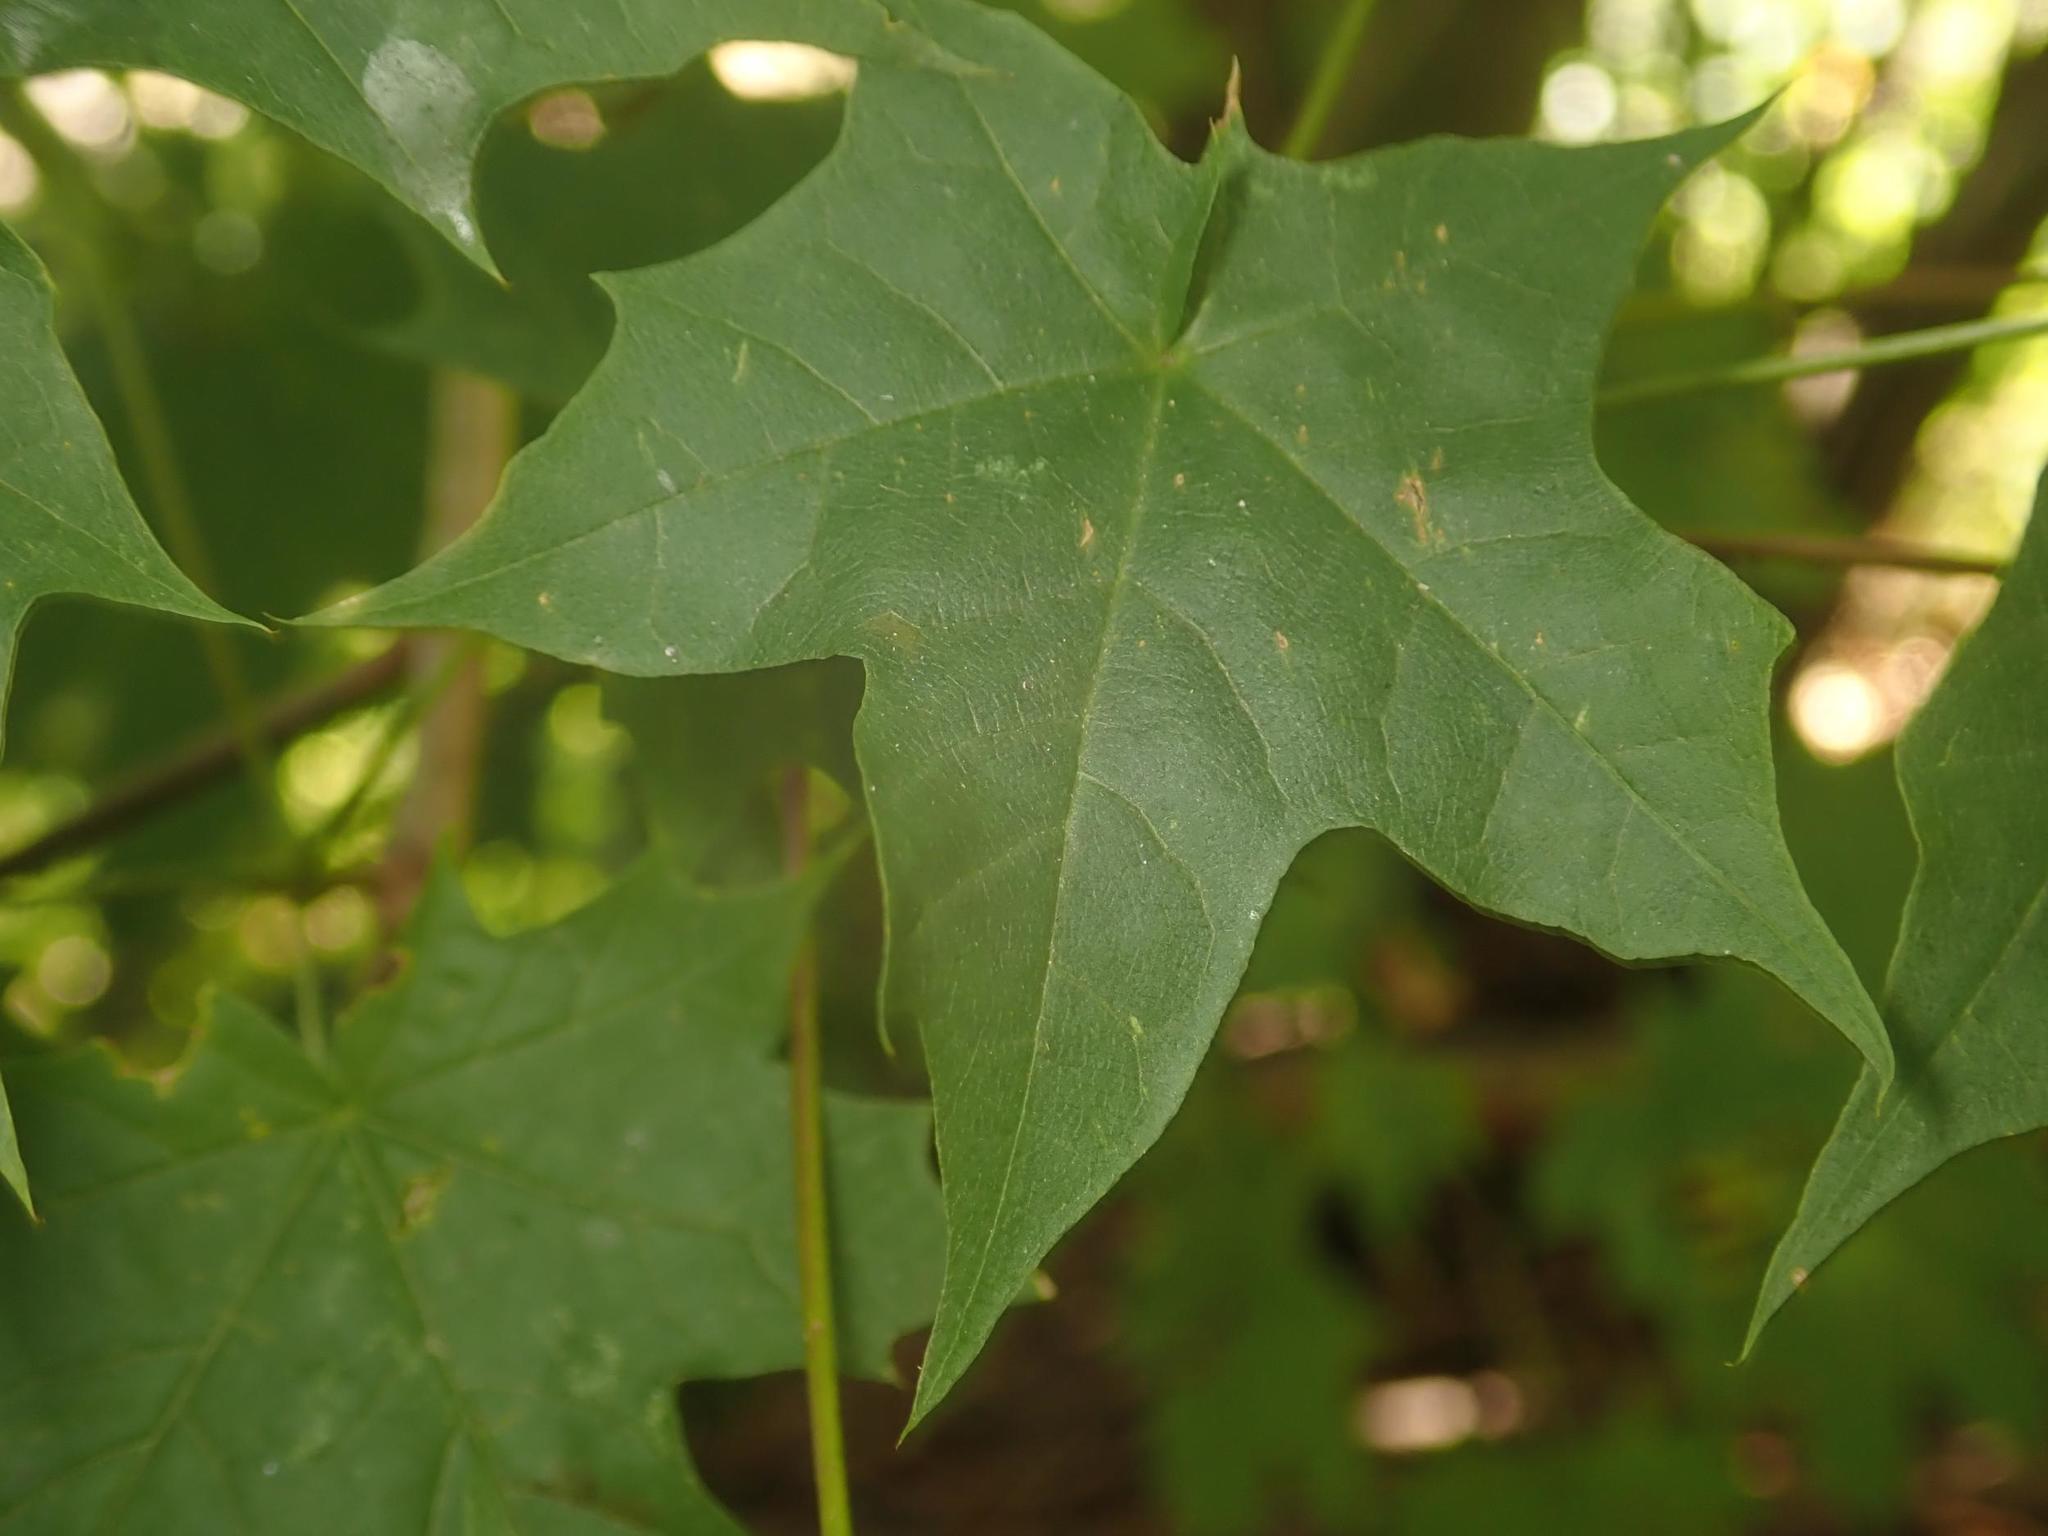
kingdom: Plantae
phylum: Tracheophyta
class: Magnoliopsida
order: Sapindales
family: Sapindaceae
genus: Acer
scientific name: Acer platanoides
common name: Norway maple
